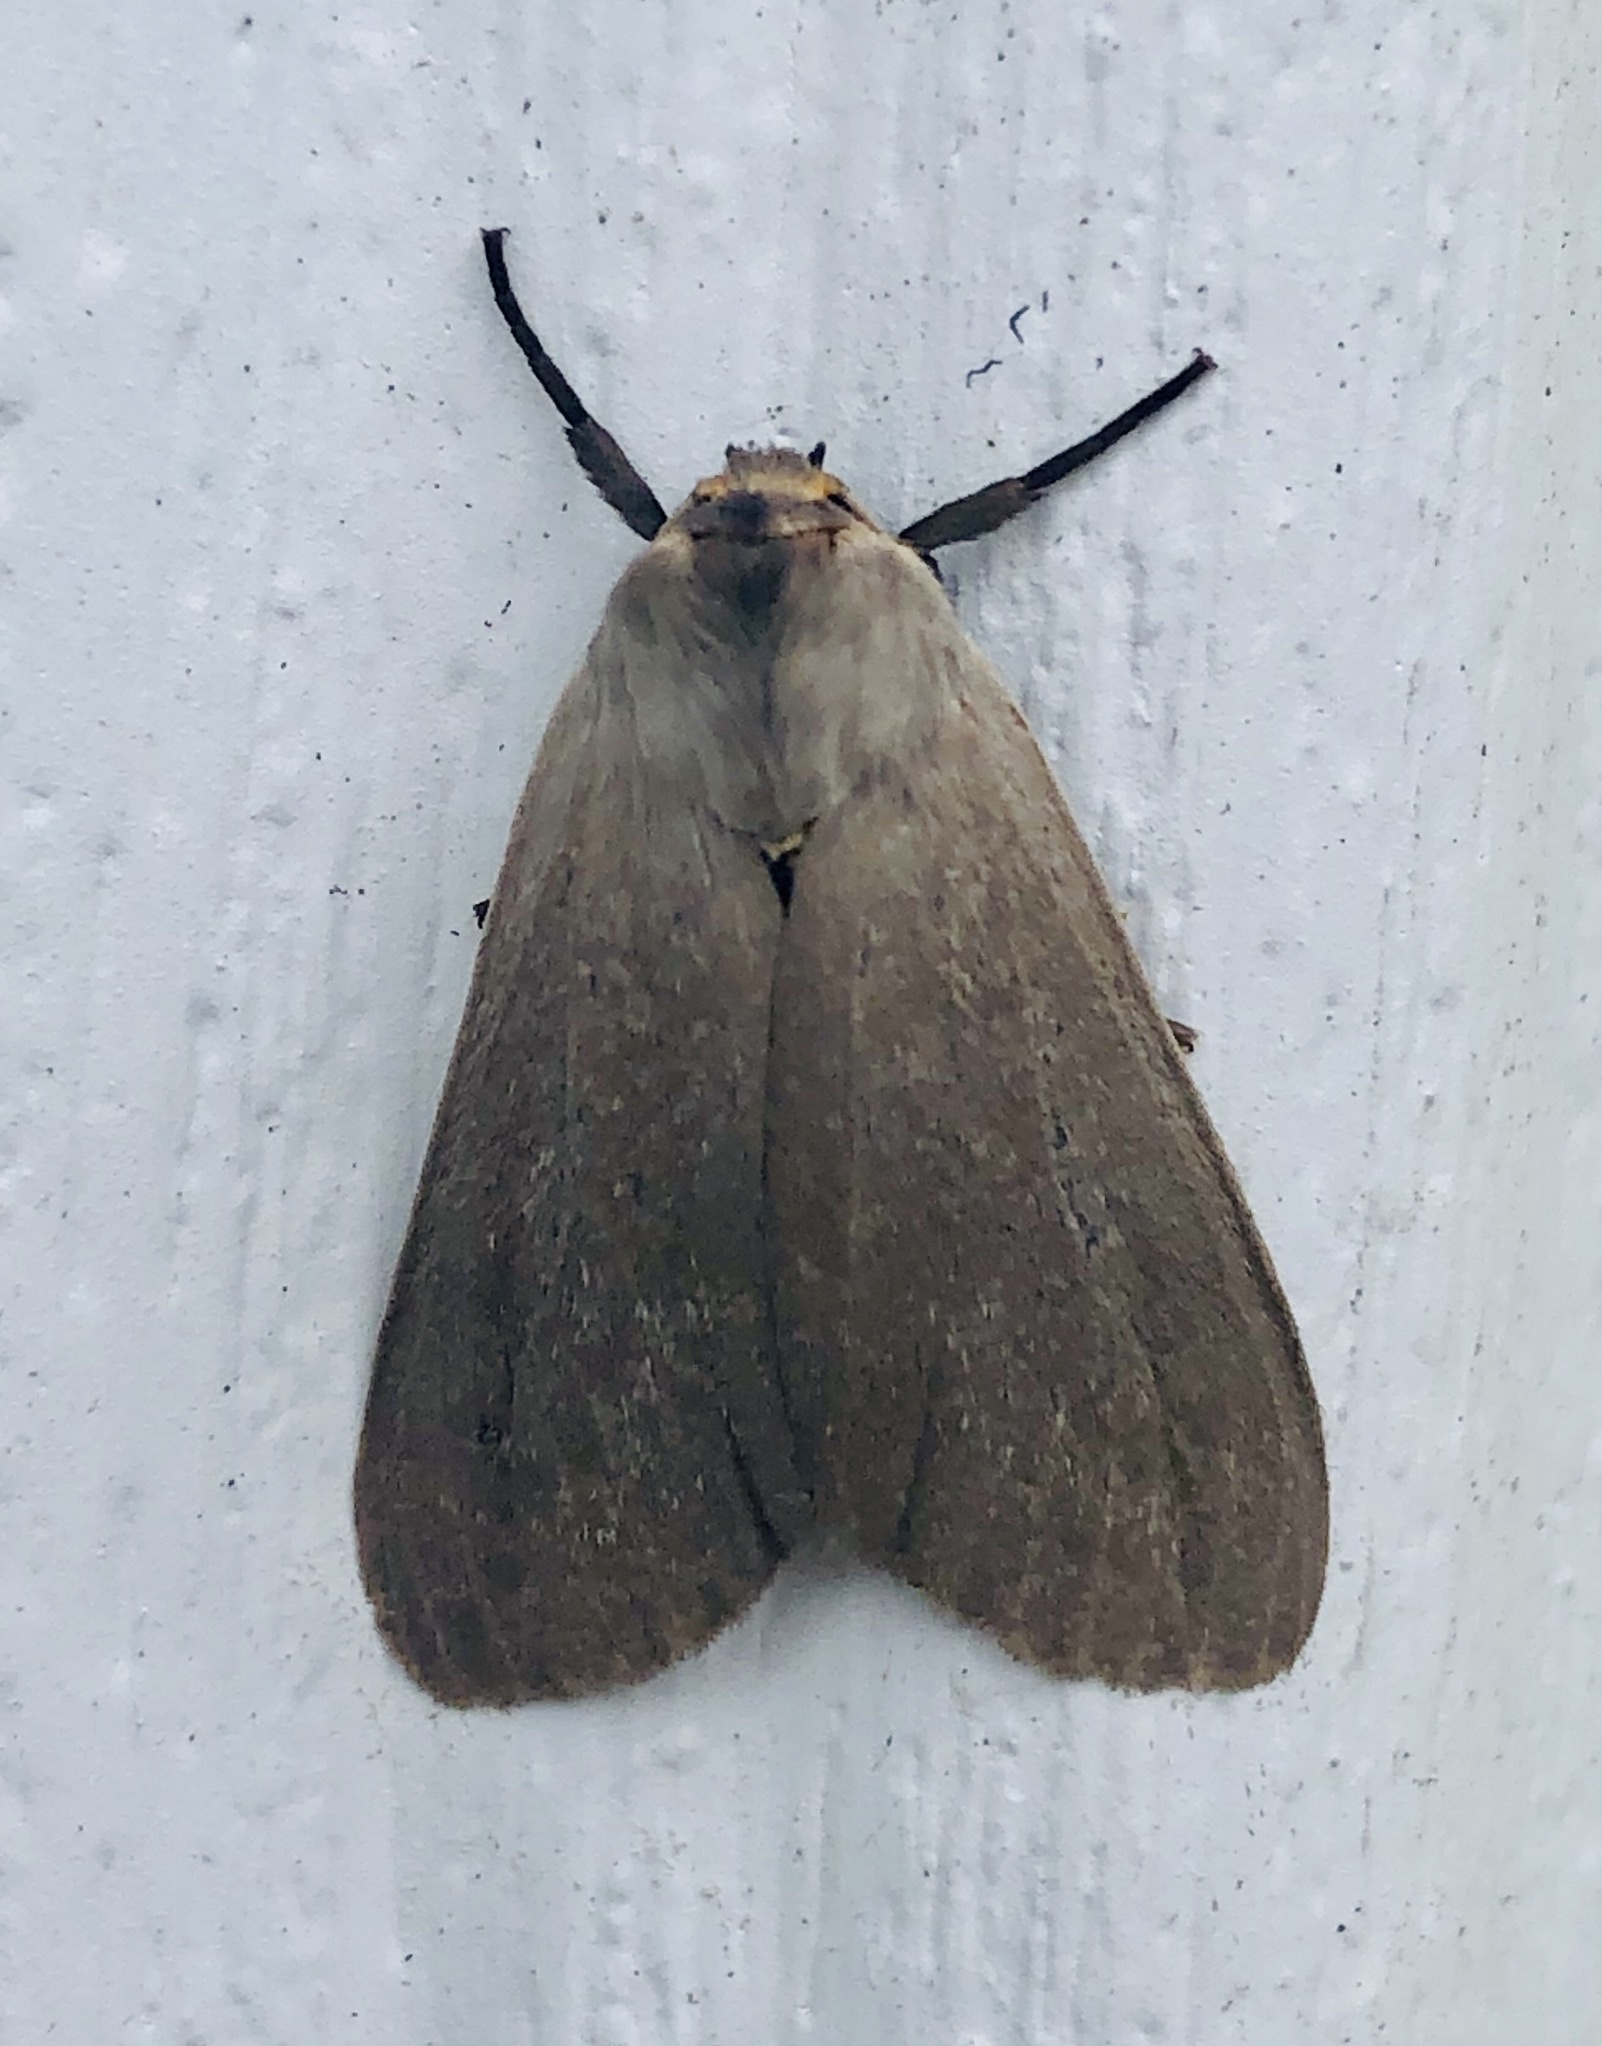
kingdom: Animalia
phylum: Arthropoda
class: Insecta
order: Lepidoptera
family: Erebidae
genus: Euchaetes
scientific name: Euchaetes egle
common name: Milkweed tussock moth
